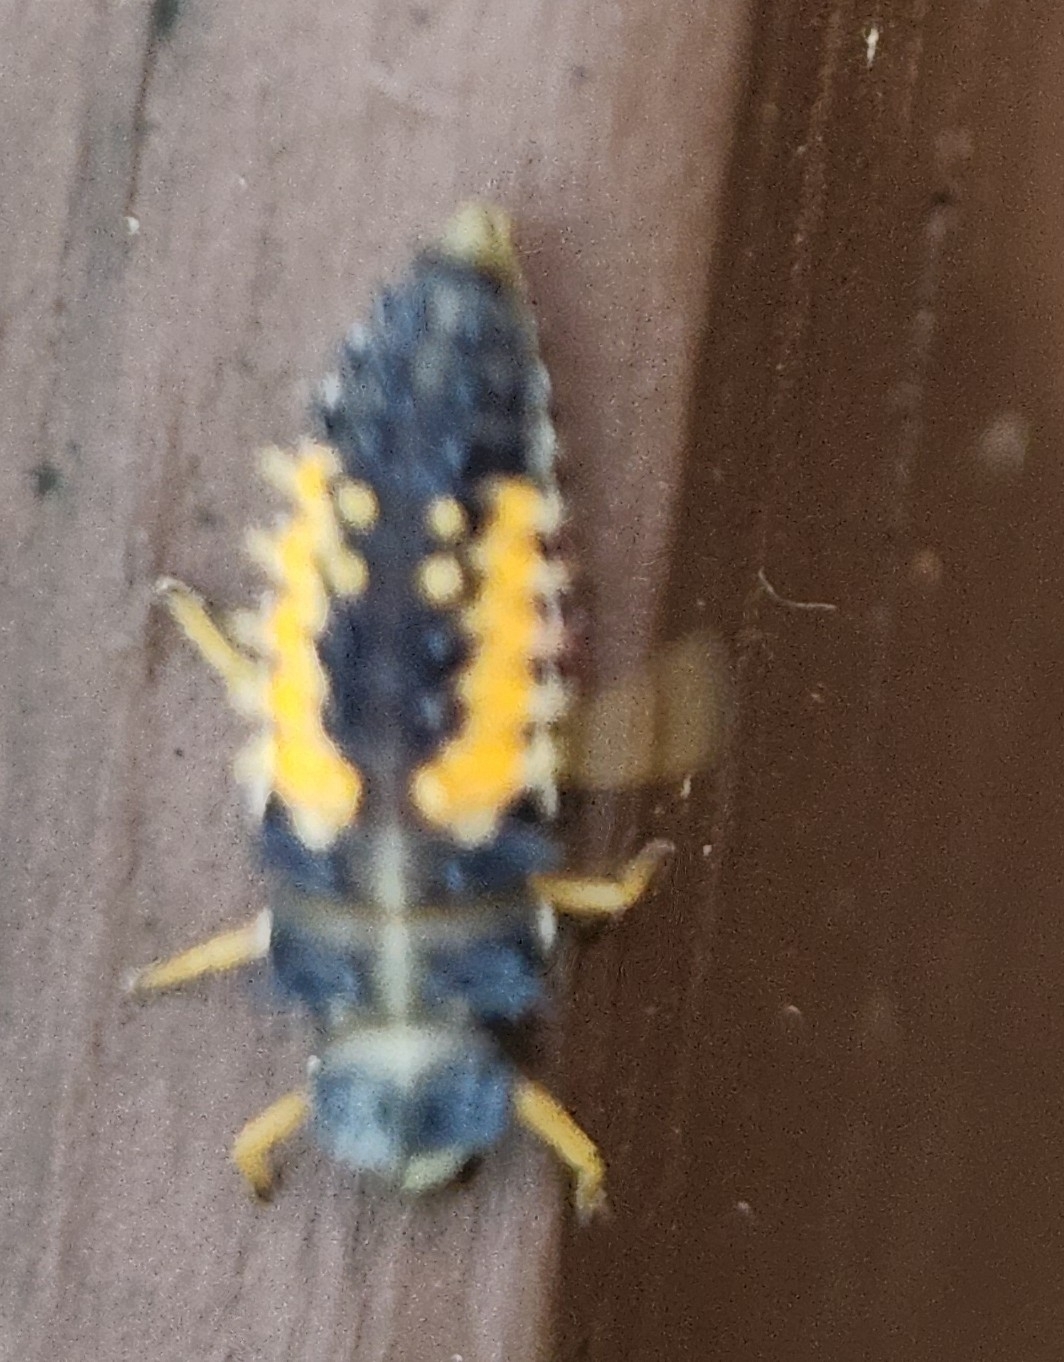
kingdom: Animalia
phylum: Arthropoda
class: Insecta
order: Coleoptera
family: Coccinellidae
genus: Harmonia
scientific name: Harmonia axyridis
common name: Harlequin ladybird
